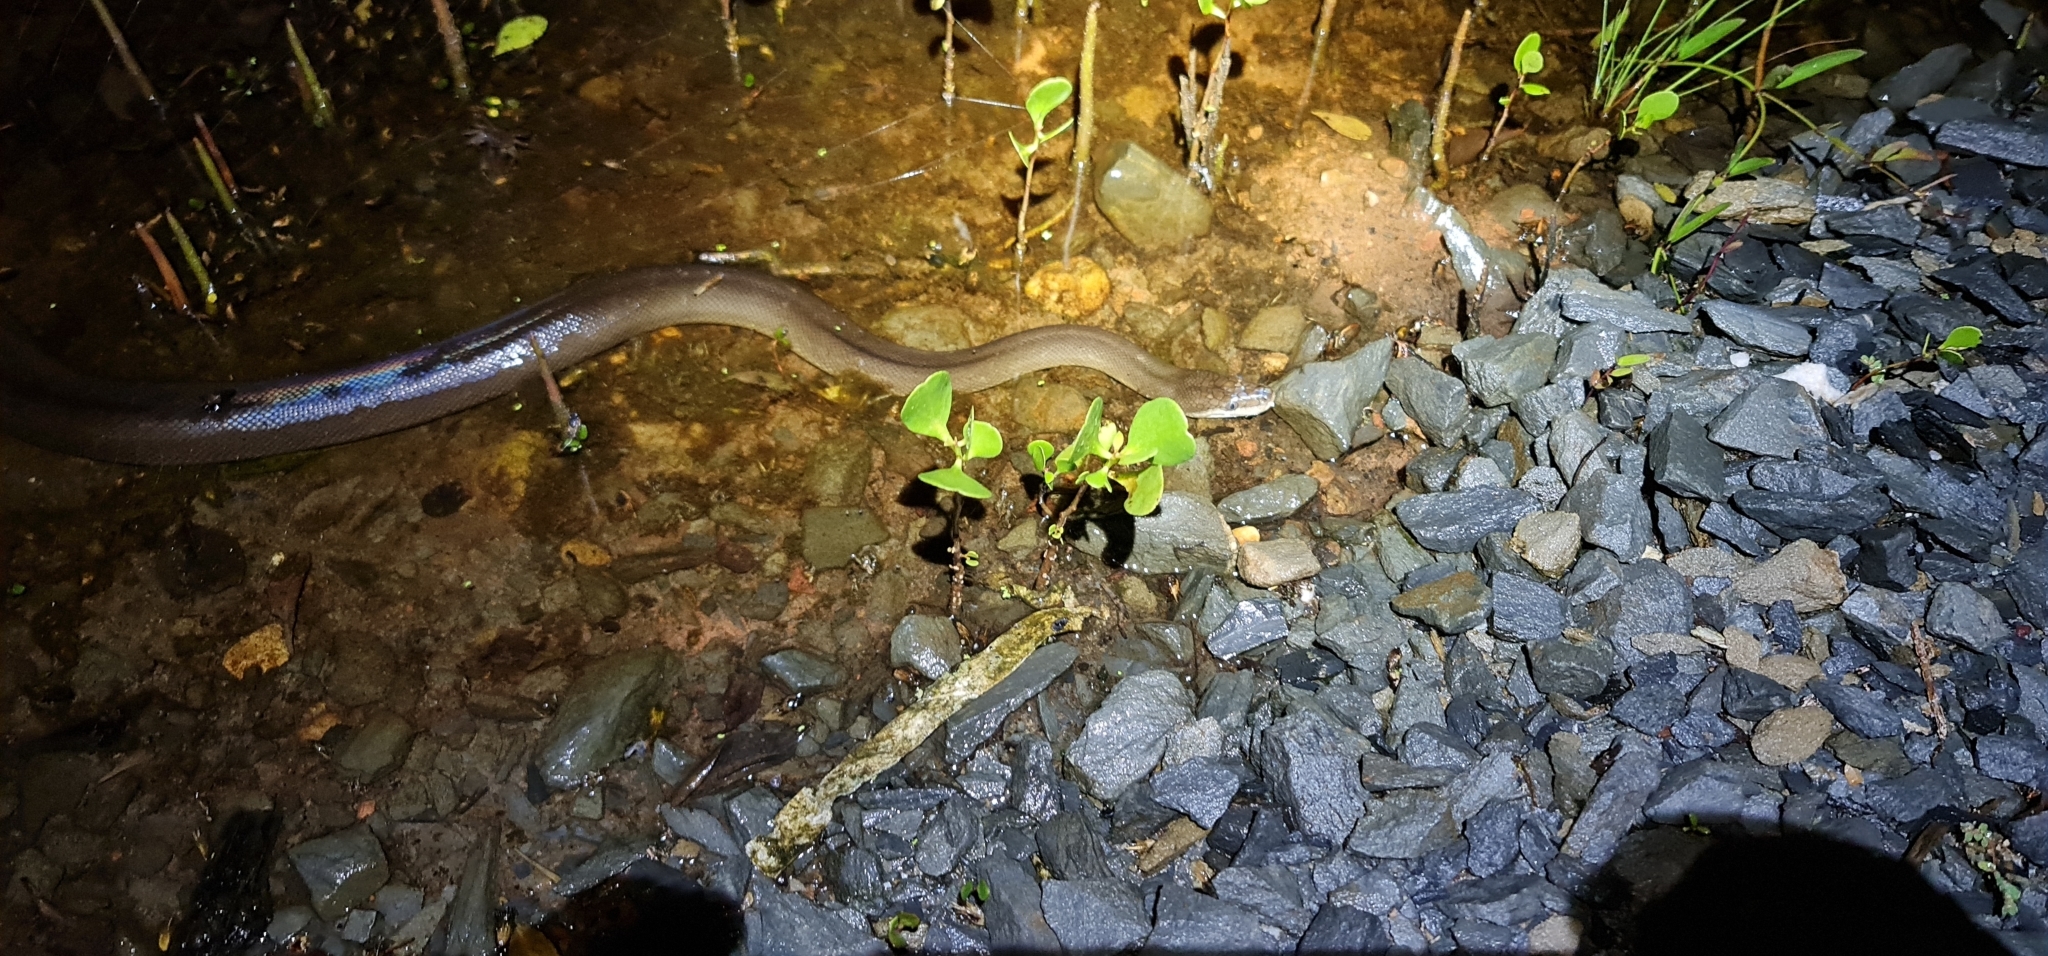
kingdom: Animalia
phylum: Chordata
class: Squamata
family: Pythonidae
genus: Liasis
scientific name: Liasis fuscus
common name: Brown water python
